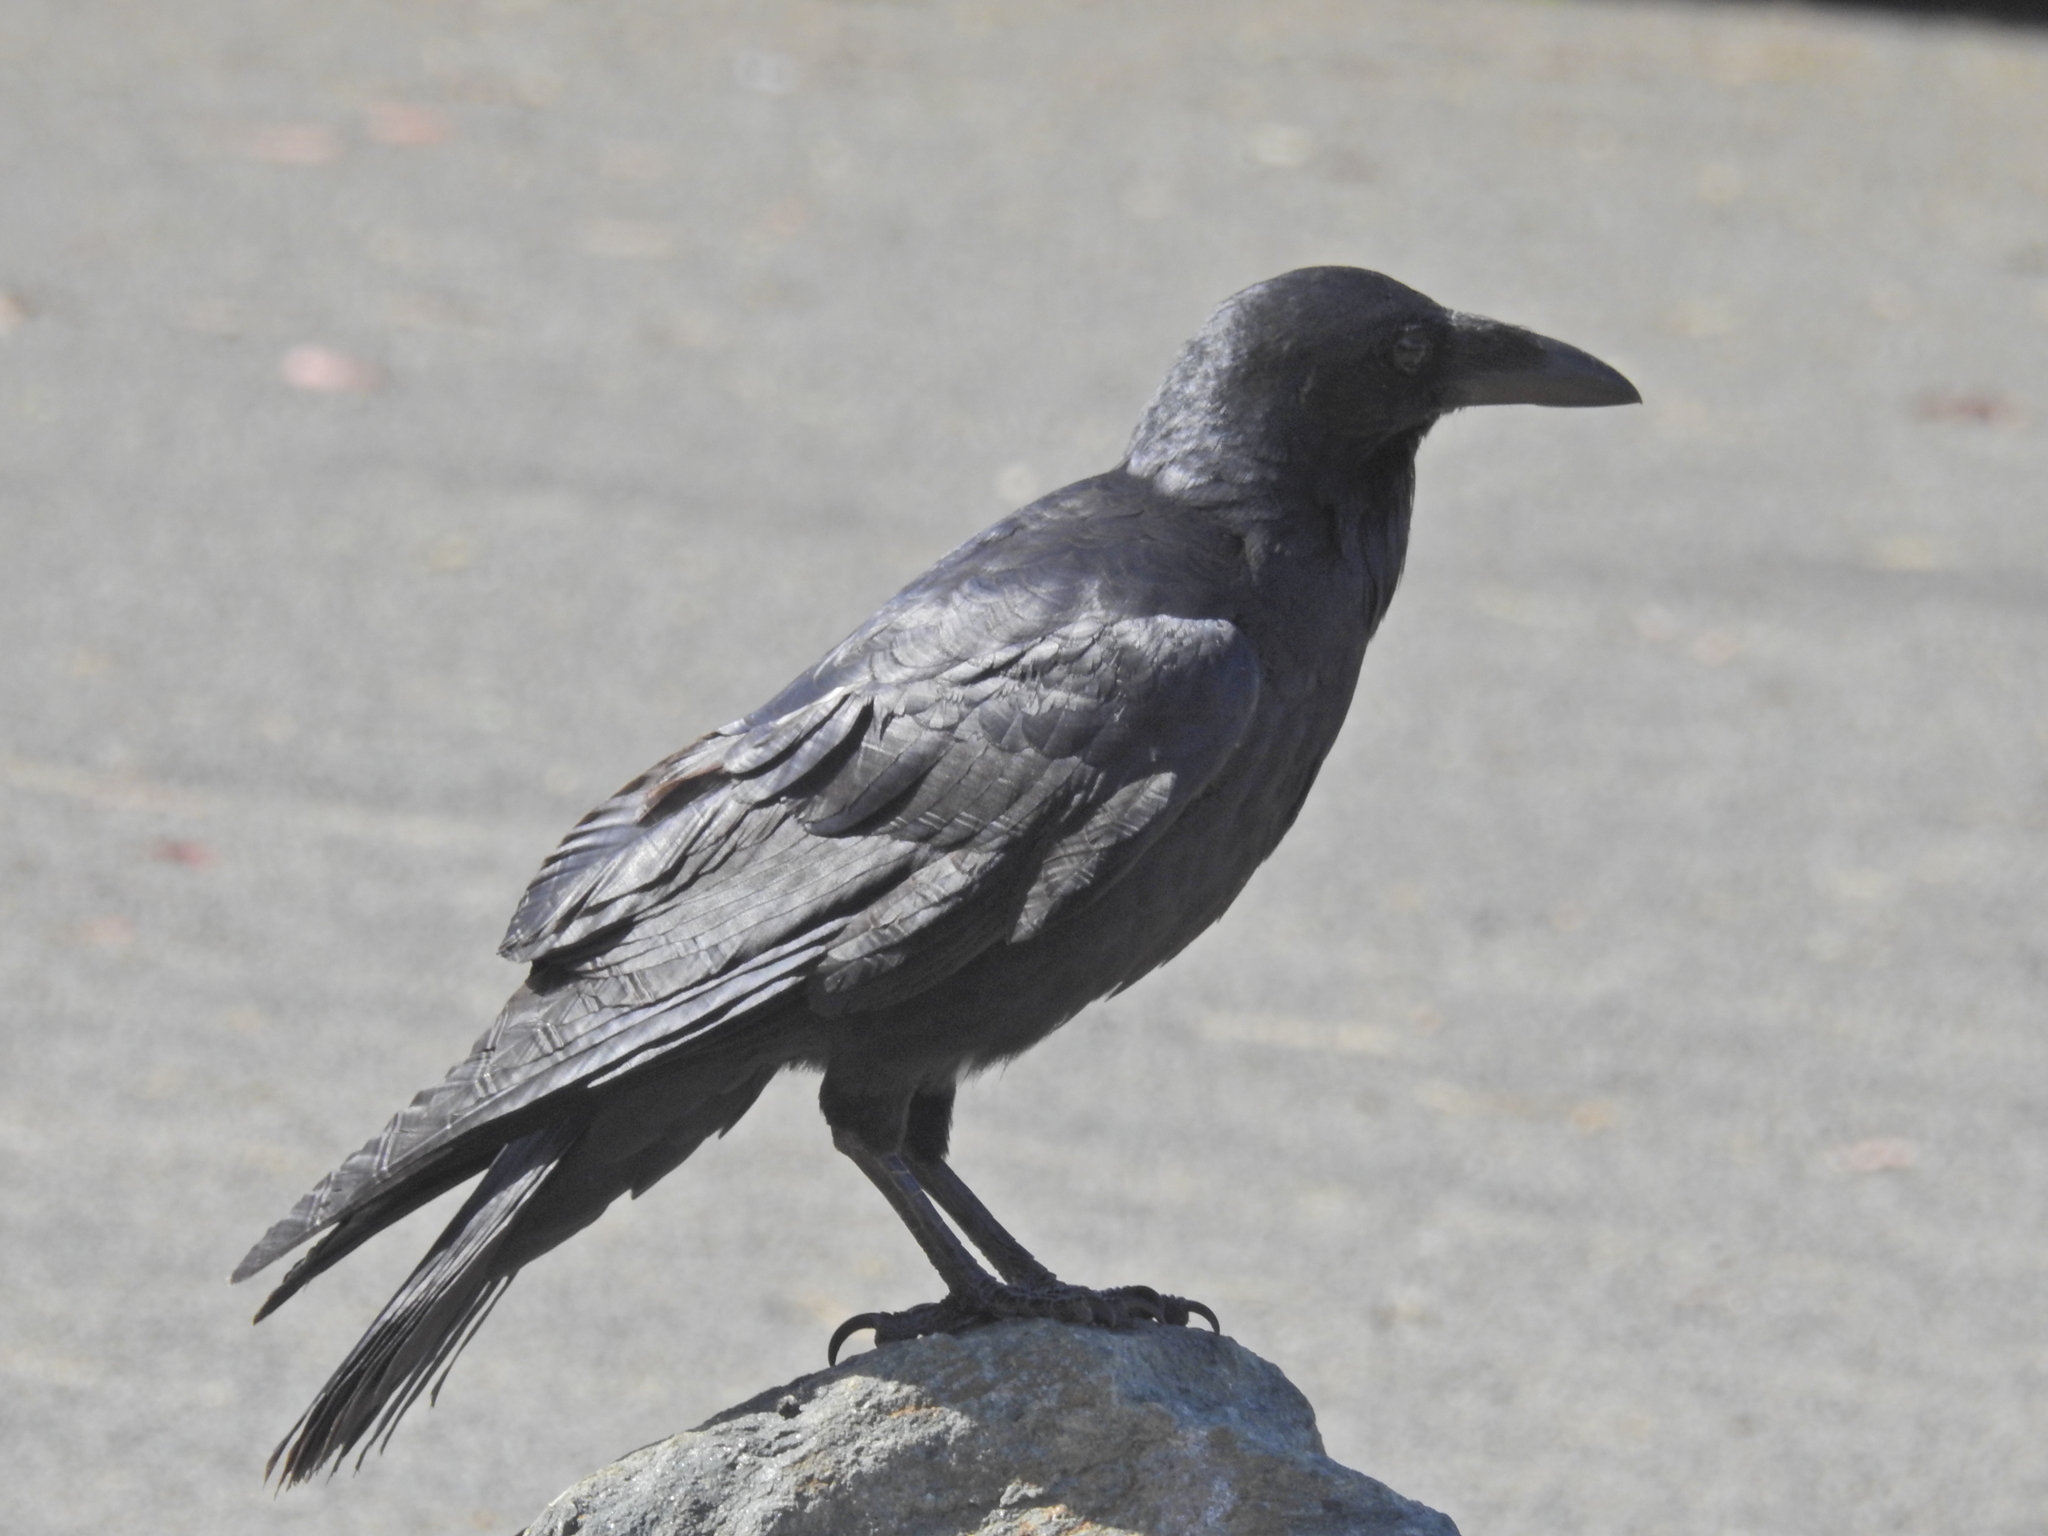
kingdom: Animalia
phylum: Chordata
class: Aves
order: Passeriformes
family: Corvidae
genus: Corvus
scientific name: Corvus coronoides
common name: Australian raven
